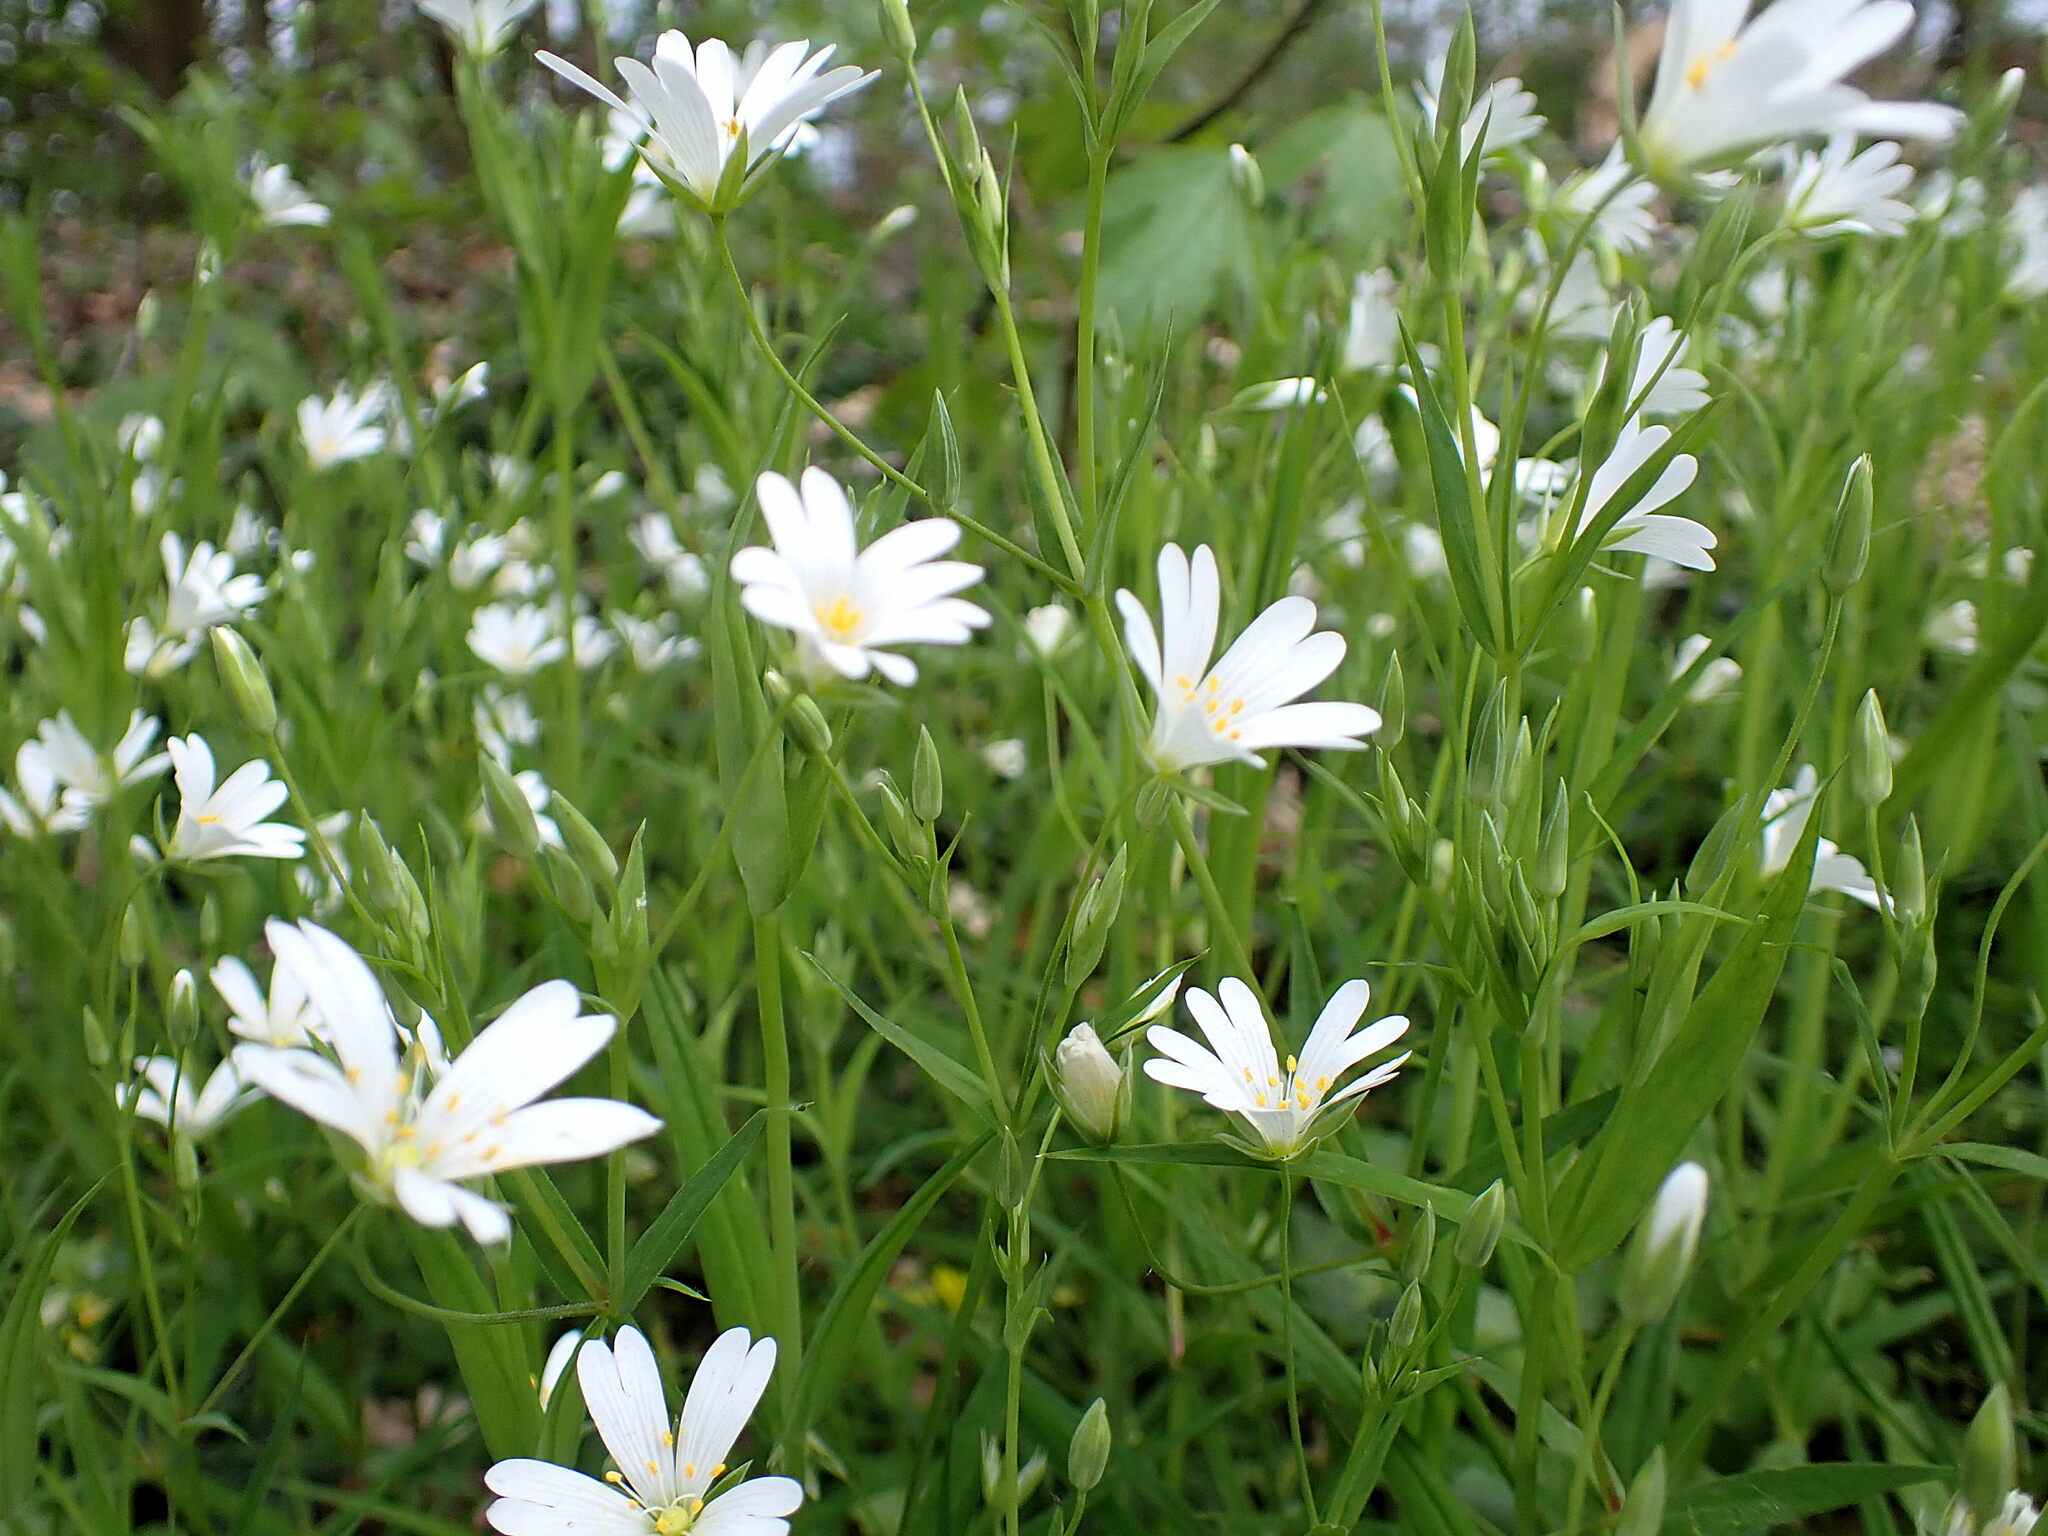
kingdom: Plantae
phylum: Tracheophyta
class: Magnoliopsida
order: Caryophyllales
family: Caryophyllaceae
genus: Rabelera
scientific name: Rabelera holostea
